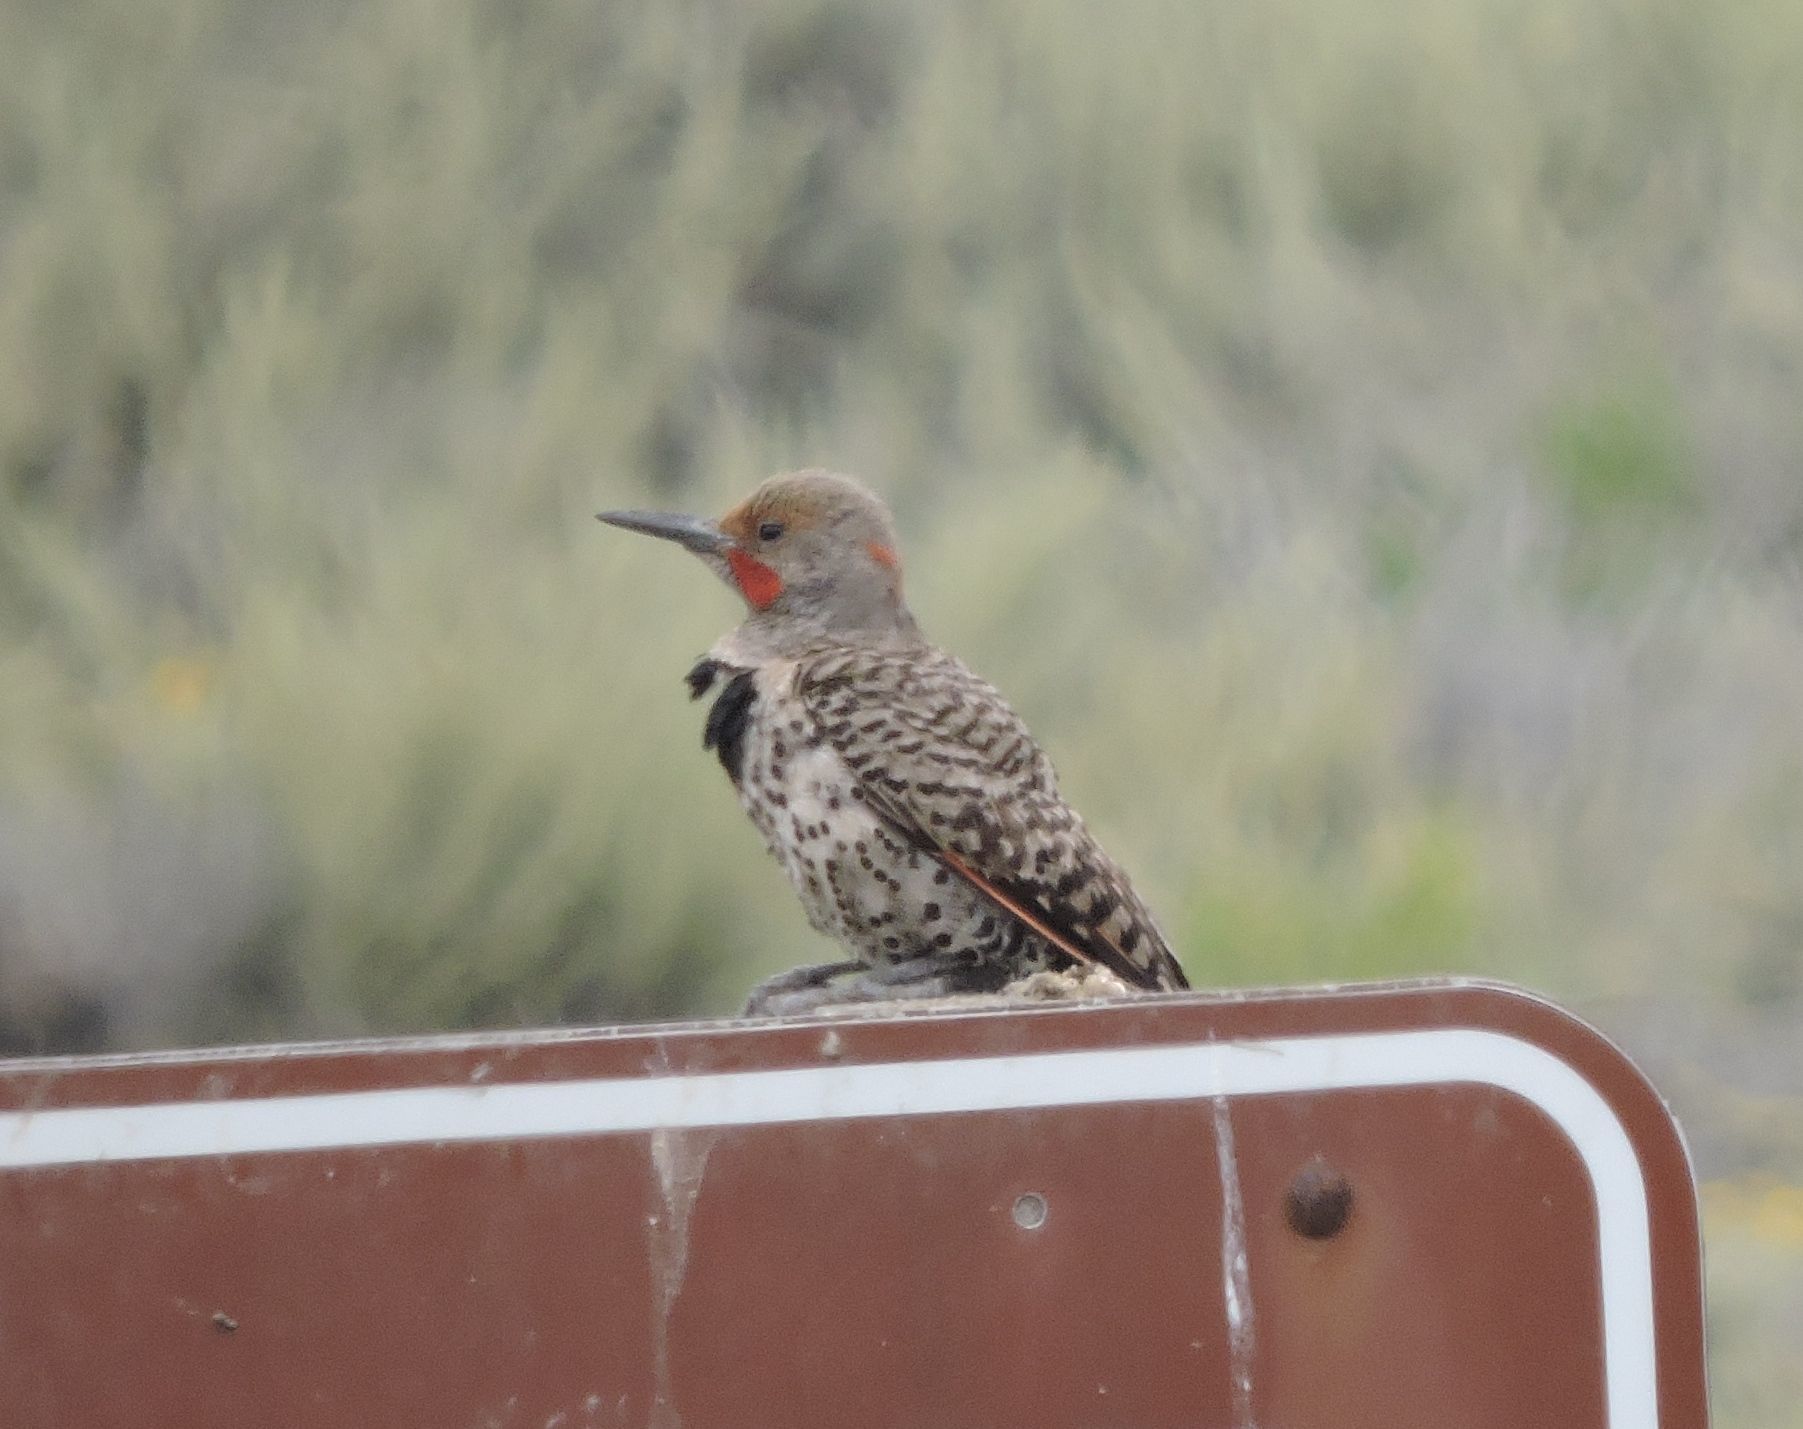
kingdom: Animalia
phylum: Chordata
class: Aves
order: Piciformes
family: Picidae
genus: Colaptes
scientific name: Colaptes auratus
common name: Northern flicker
